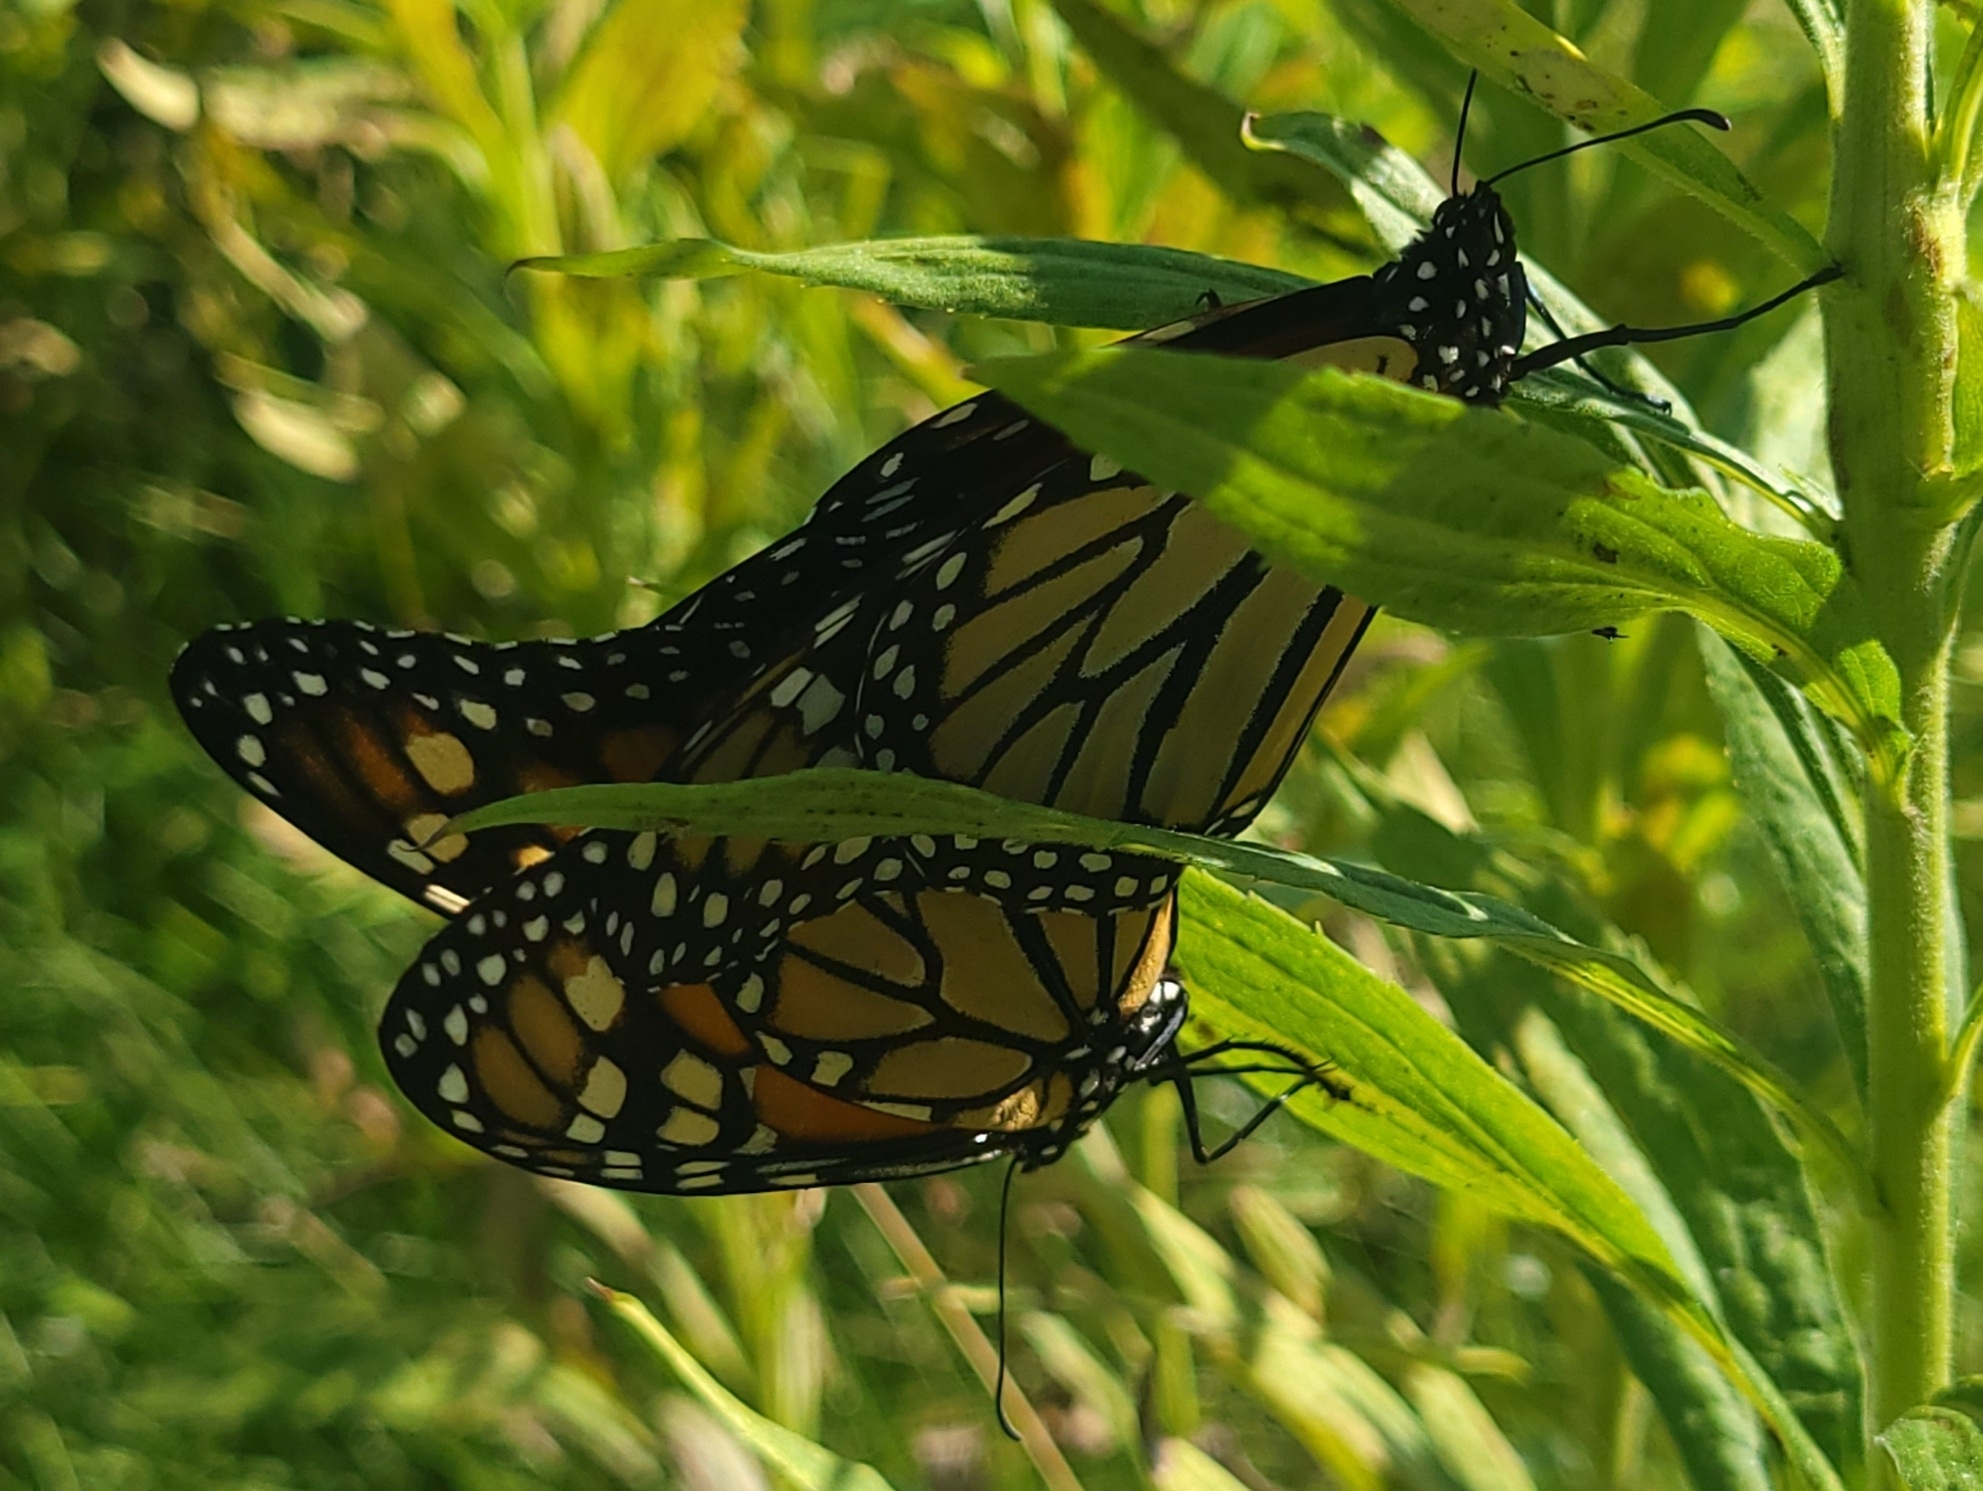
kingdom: Animalia
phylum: Arthropoda
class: Insecta
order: Lepidoptera
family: Nymphalidae
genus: Danaus
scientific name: Danaus plexippus
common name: Monarch
